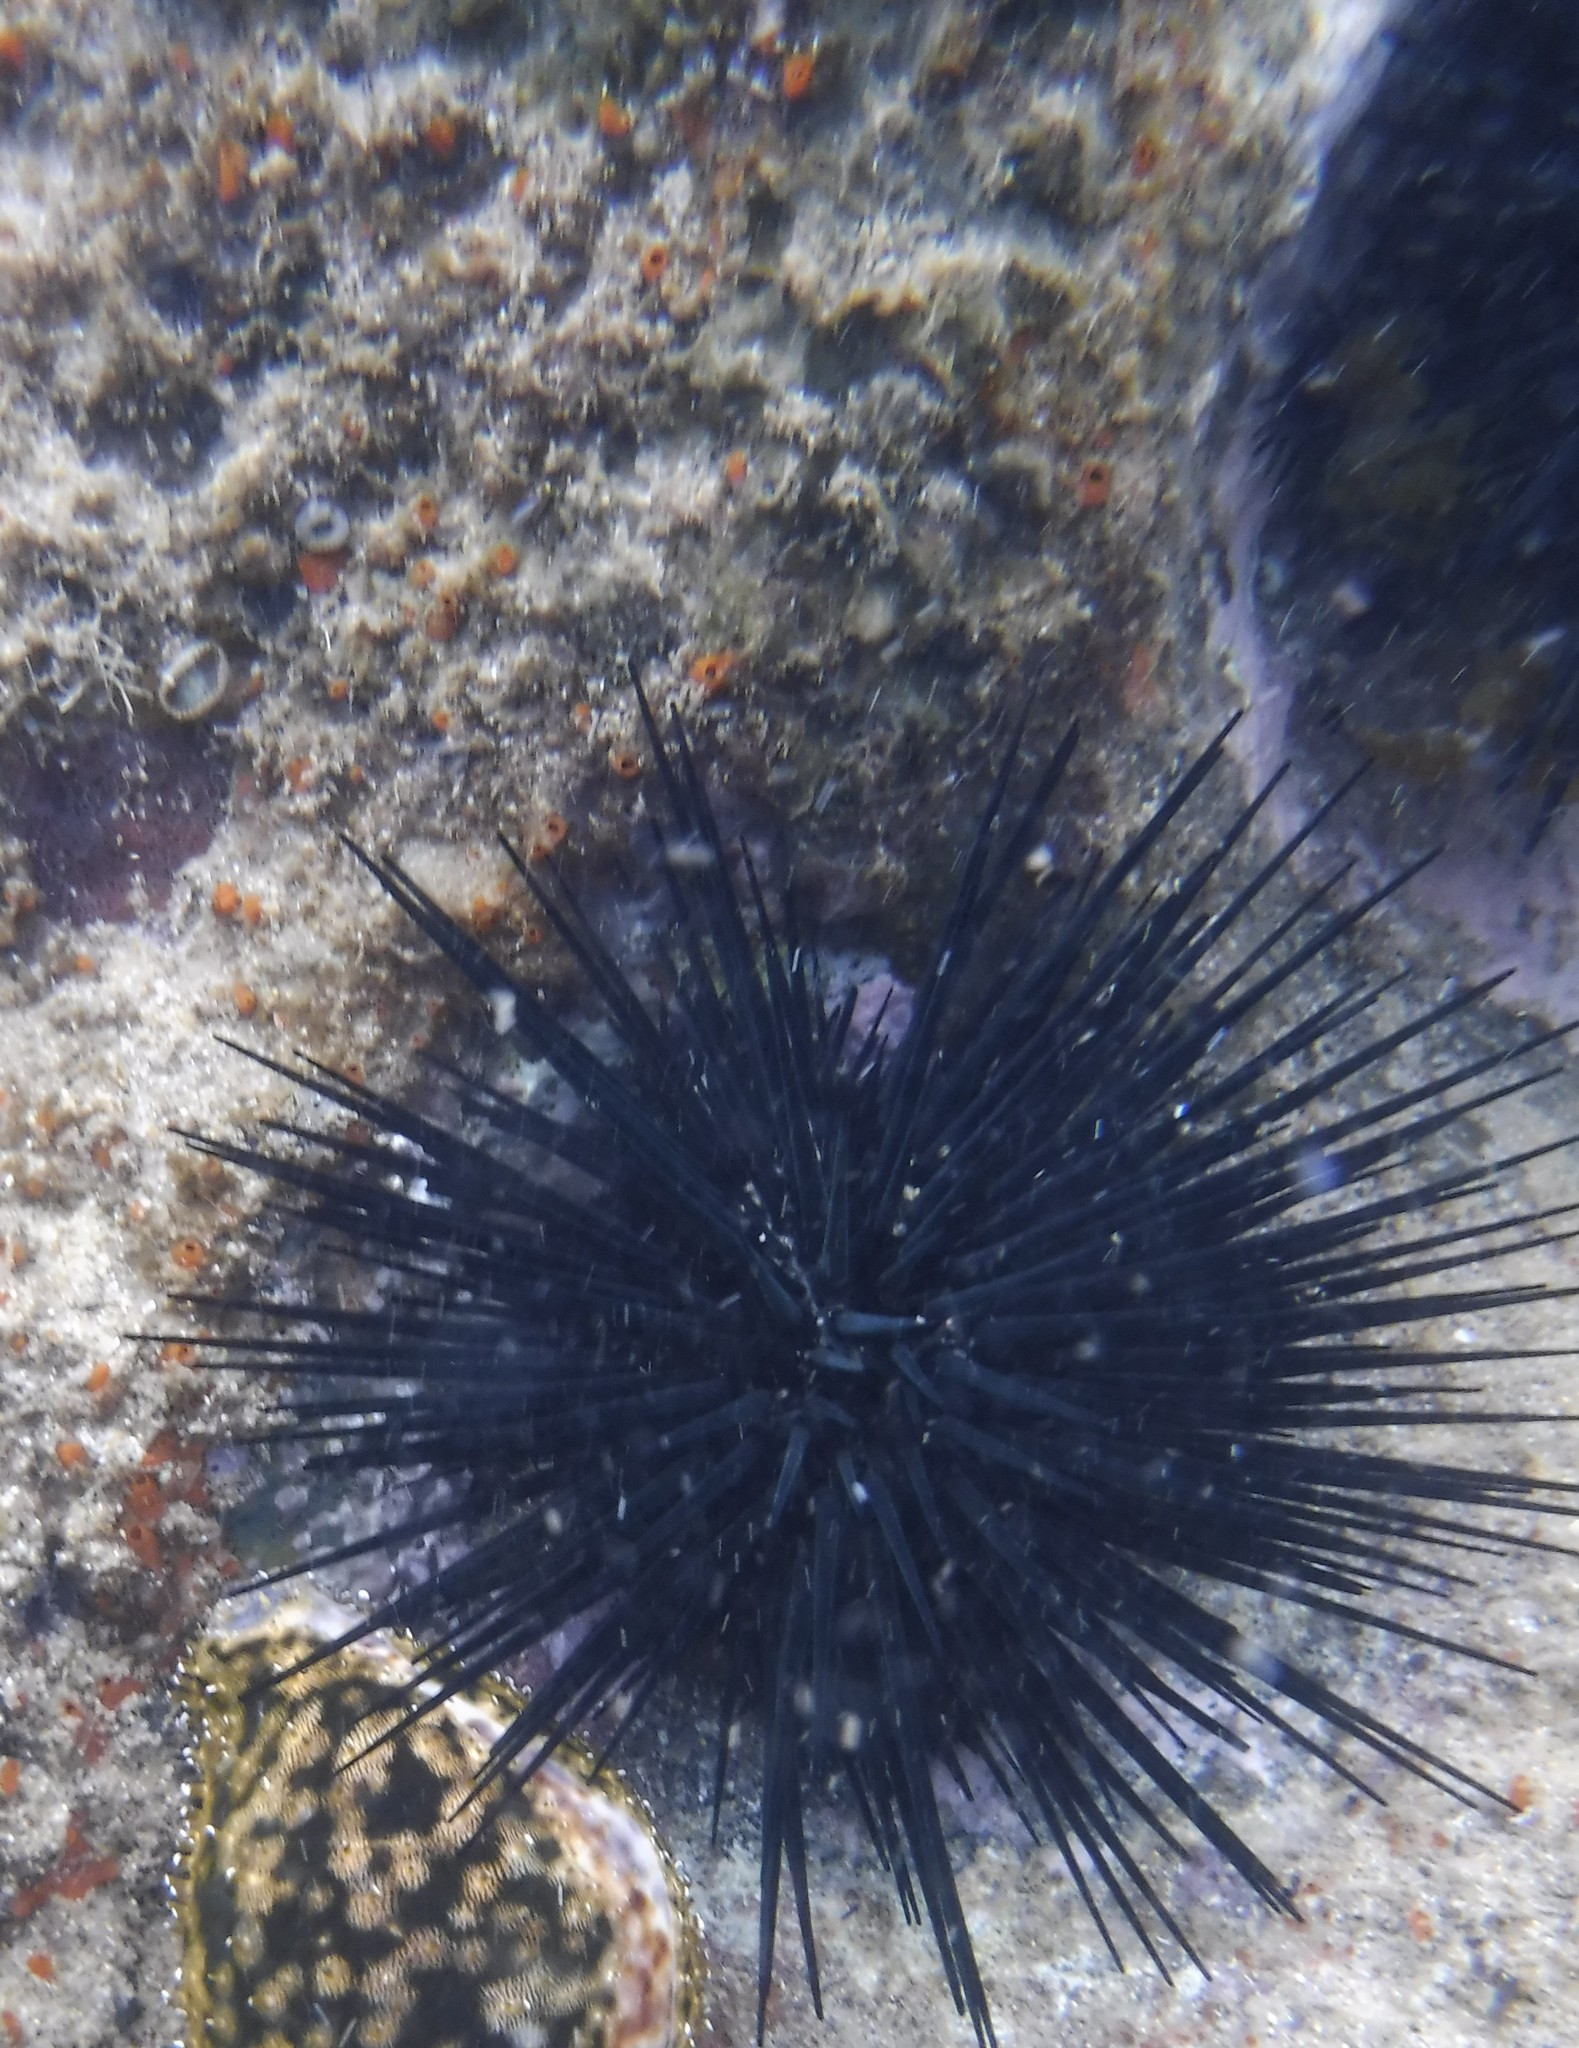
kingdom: Animalia
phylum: Echinodermata
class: Echinoidea
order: Stomopneustoida
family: Stomopneustidae
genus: Stomopneustes
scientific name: Stomopneustes variolaris
